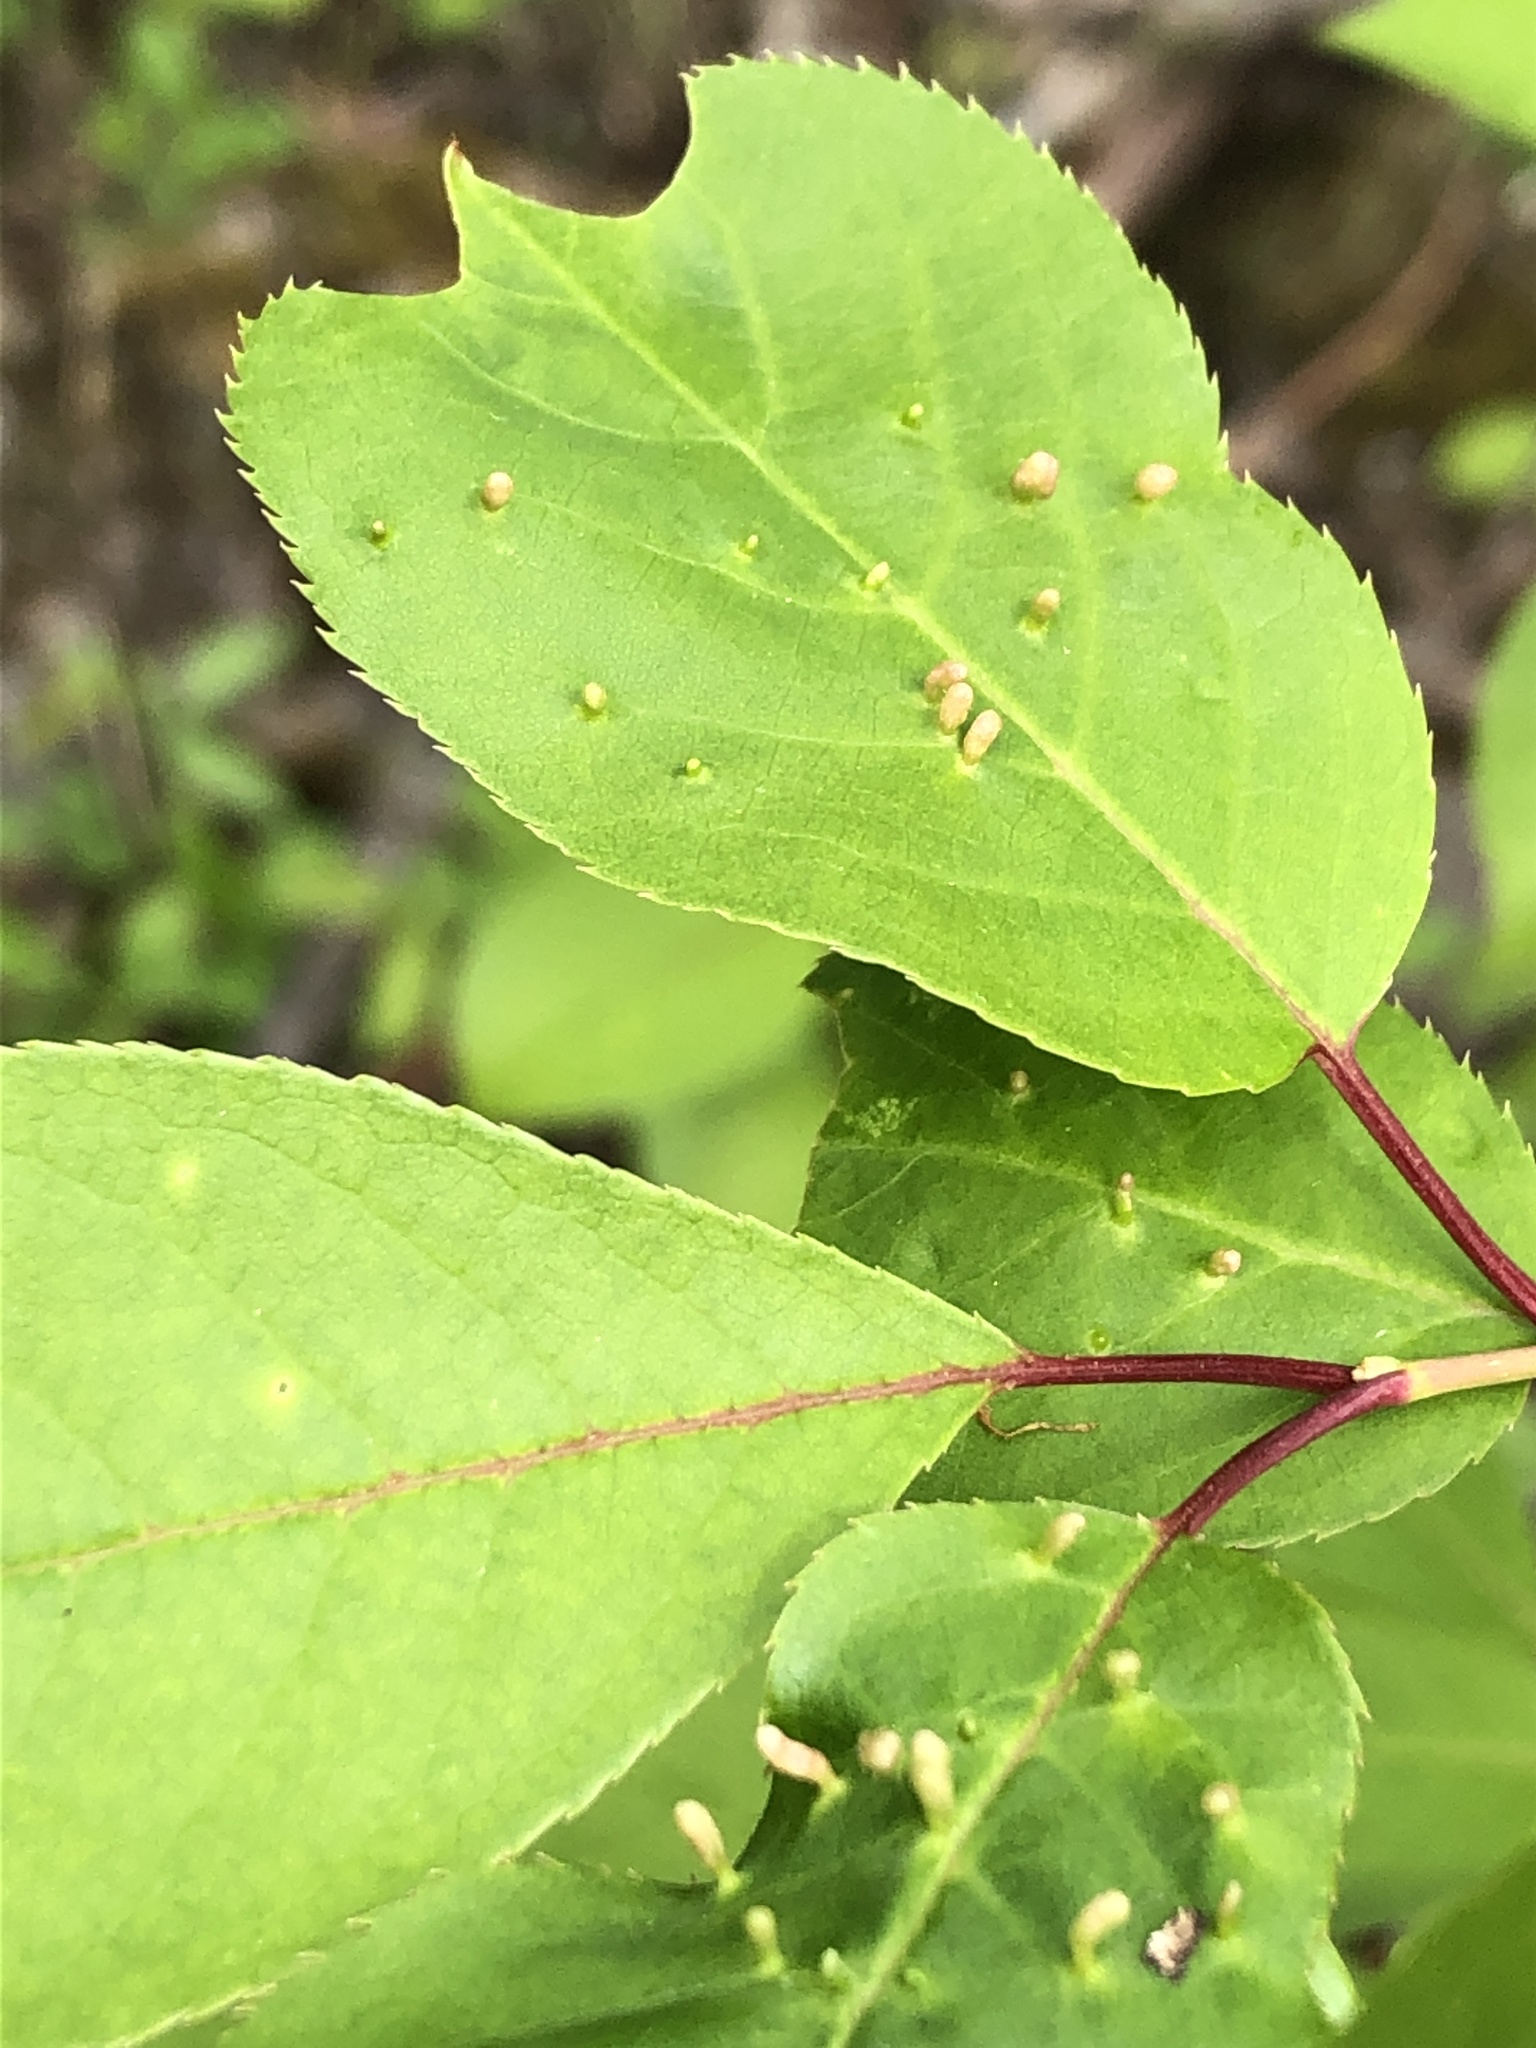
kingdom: Animalia
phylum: Arthropoda
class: Arachnida
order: Trombidiformes
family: Eriophyidae
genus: Eriophyes
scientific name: Eriophyes emarginatae
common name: Plum leaf gall mite
